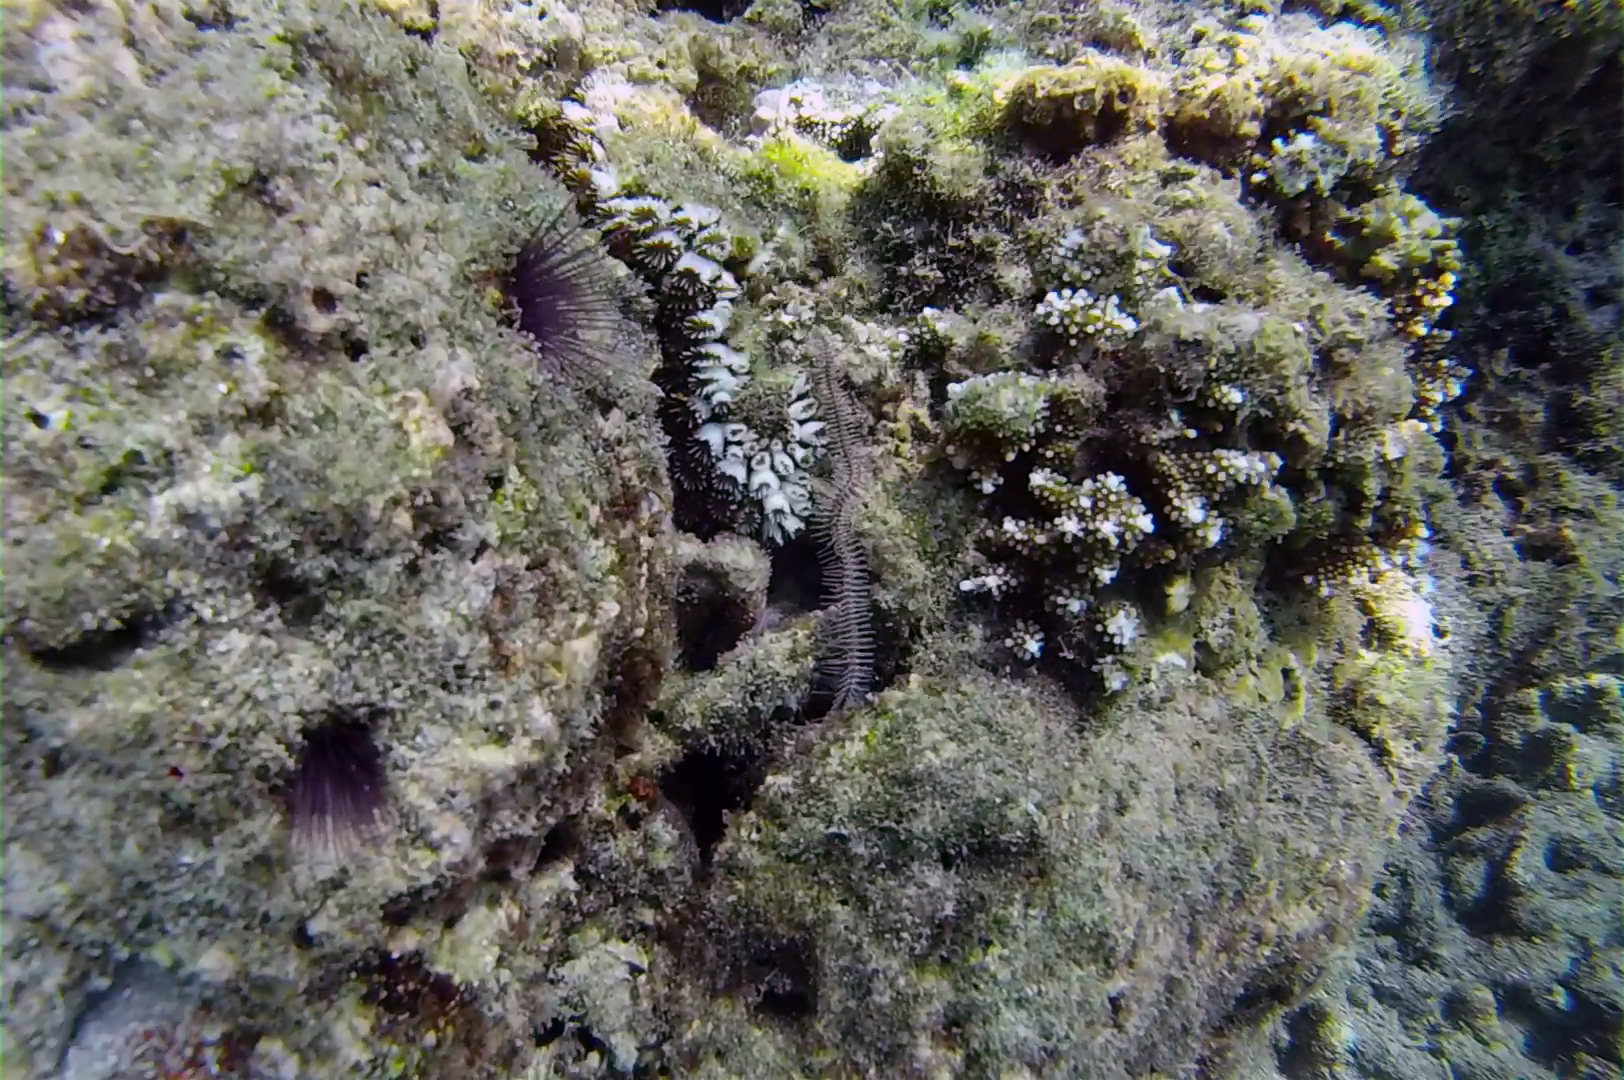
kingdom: Animalia
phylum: Cnidaria
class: Anthozoa
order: Scleractinia
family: Euphylliidae
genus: Galaxea
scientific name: Galaxea fascicularis
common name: Octopus coral
